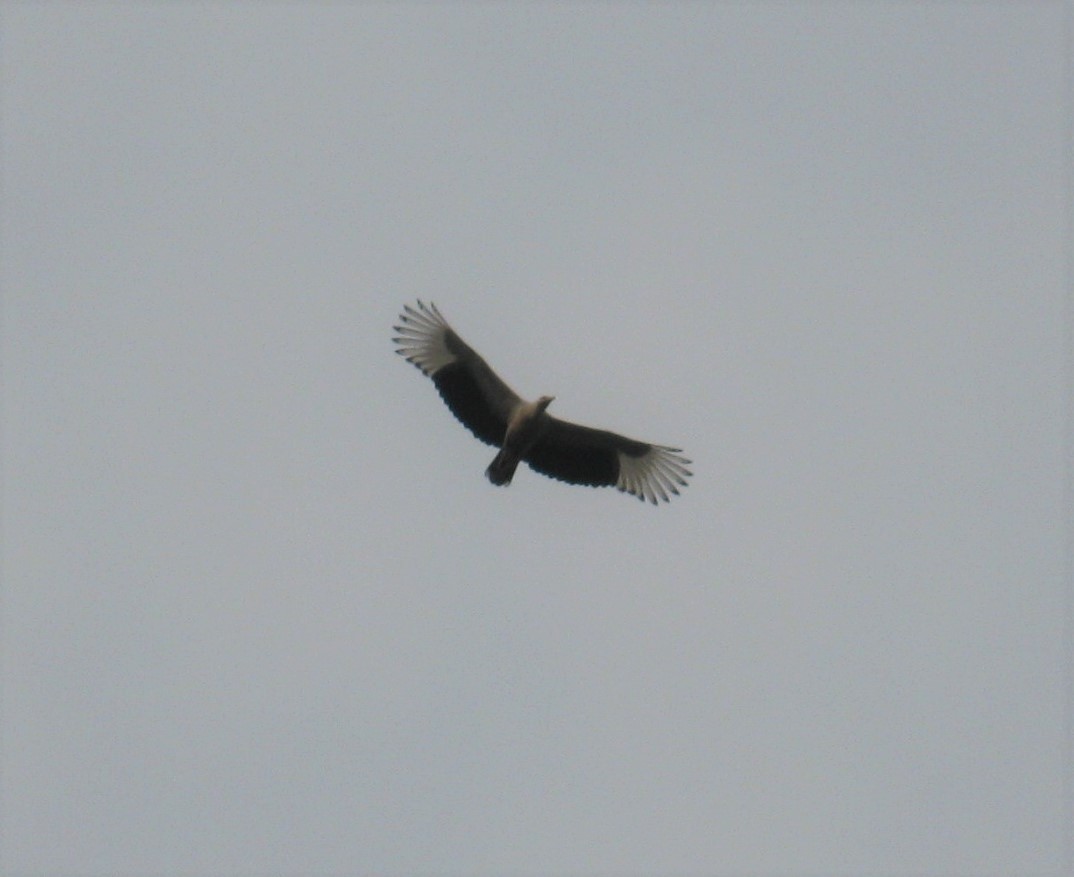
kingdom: Animalia
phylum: Chordata
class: Aves
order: Accipitriformes
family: Accipitridae
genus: Gypohierax
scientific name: Gypohierax angolensis
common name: Palm-nut vulture
